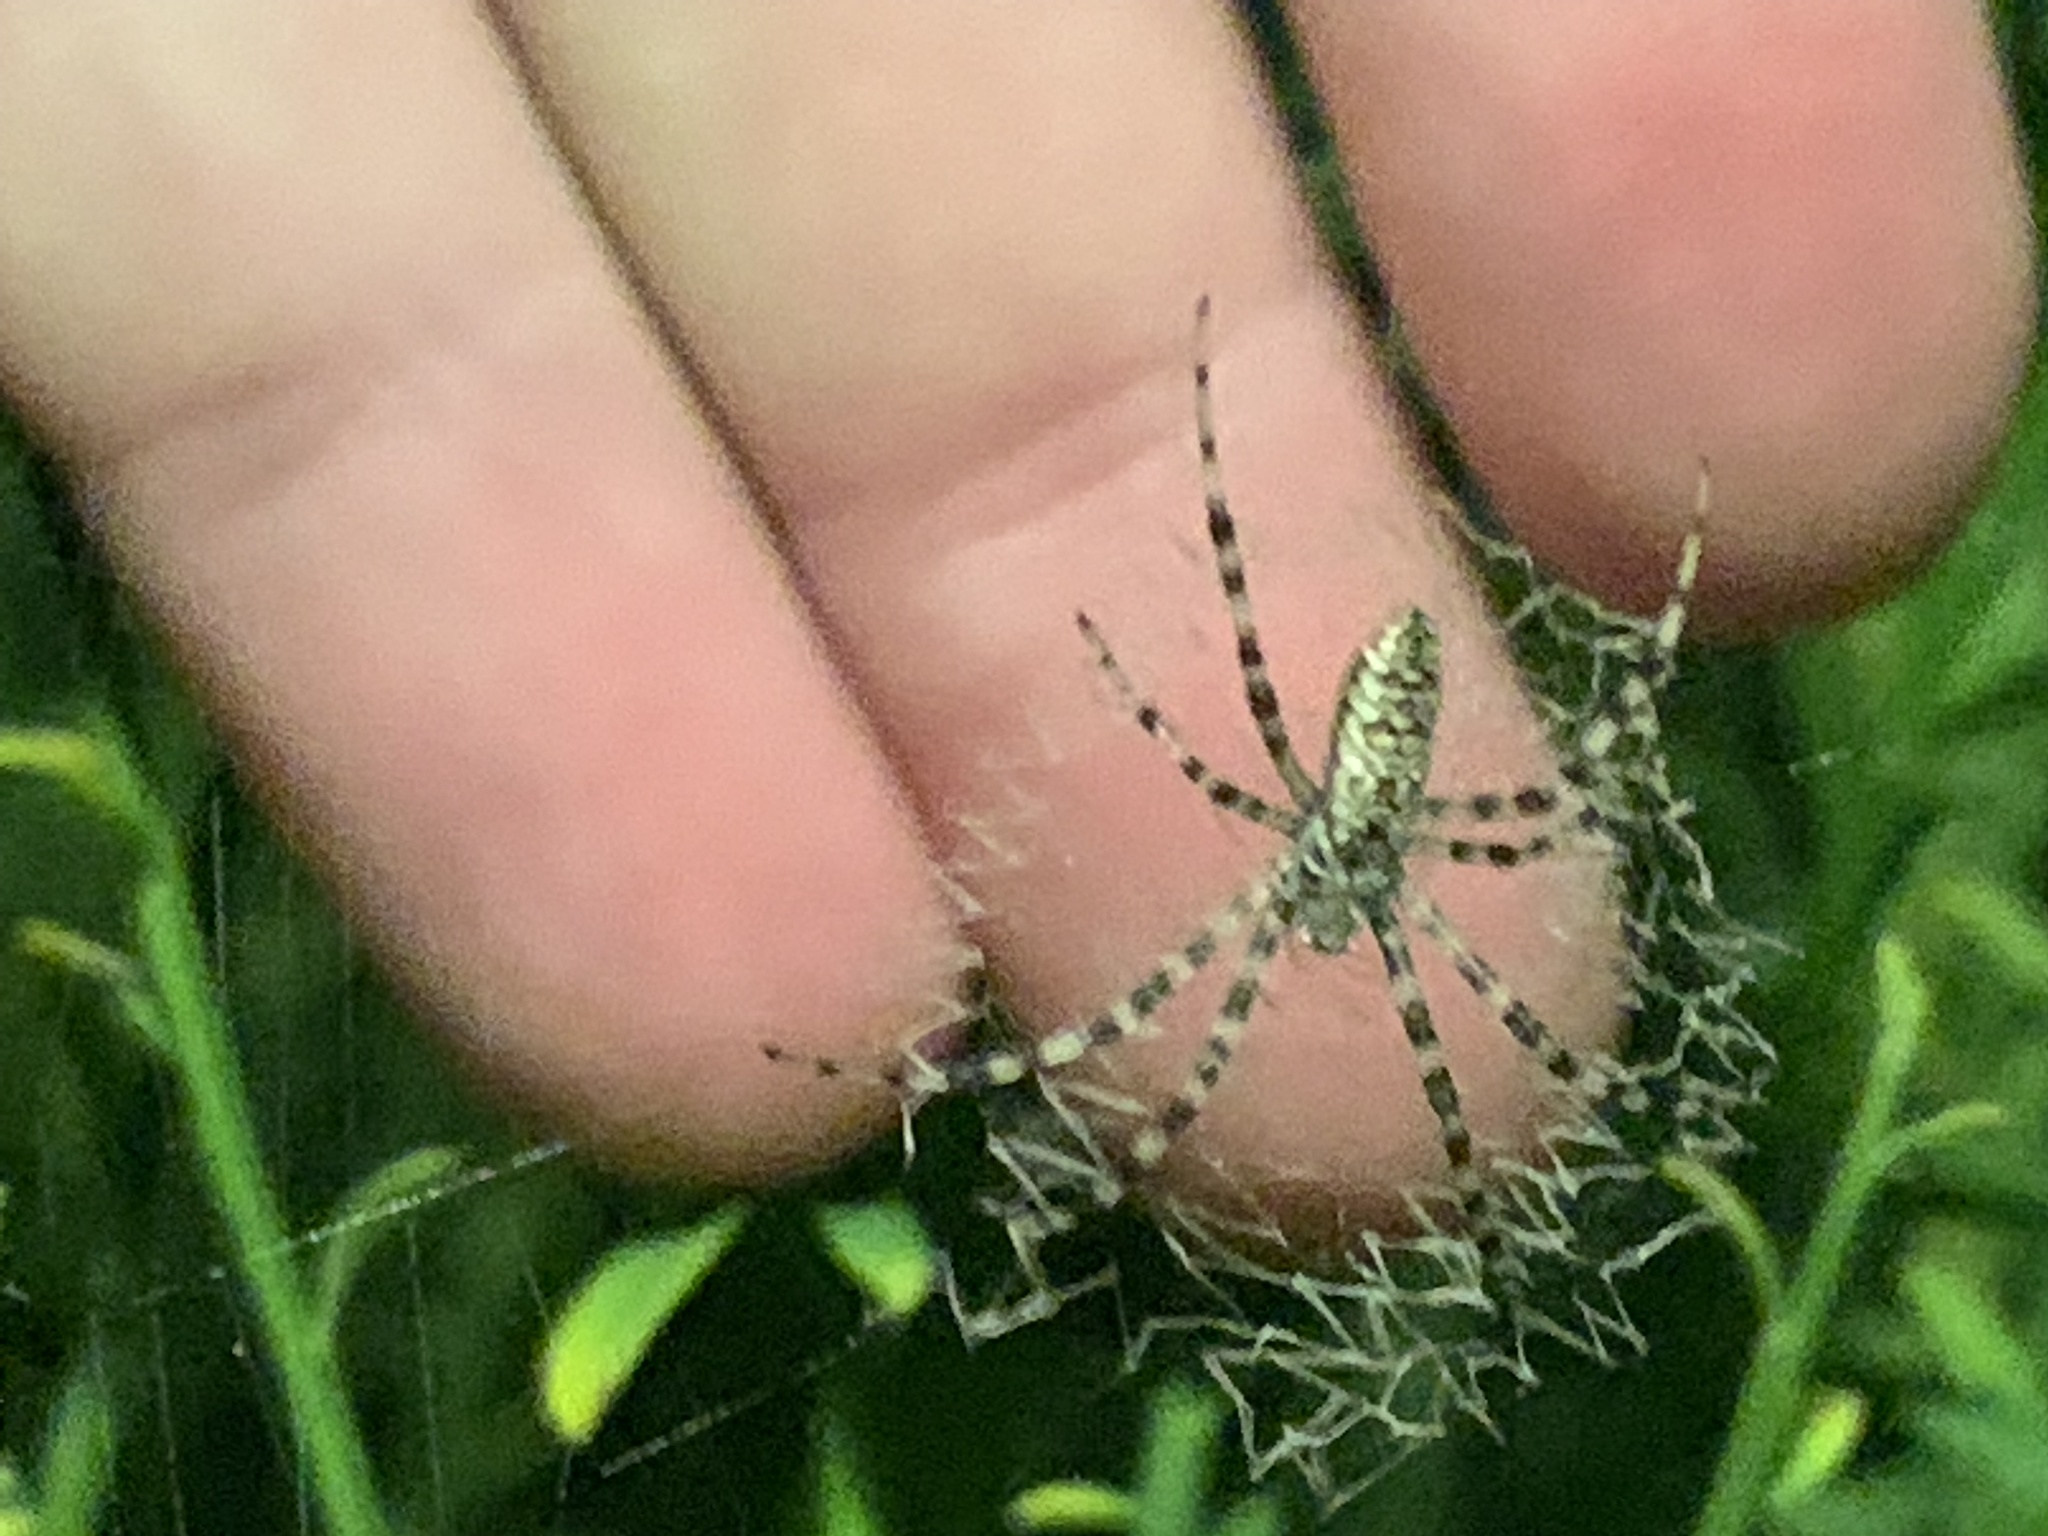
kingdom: Animalia
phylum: Arthropoda
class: Arachnida
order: Araneae
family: Araneidae
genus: Argiope
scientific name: Argiope aurantia
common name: Orb weavers
